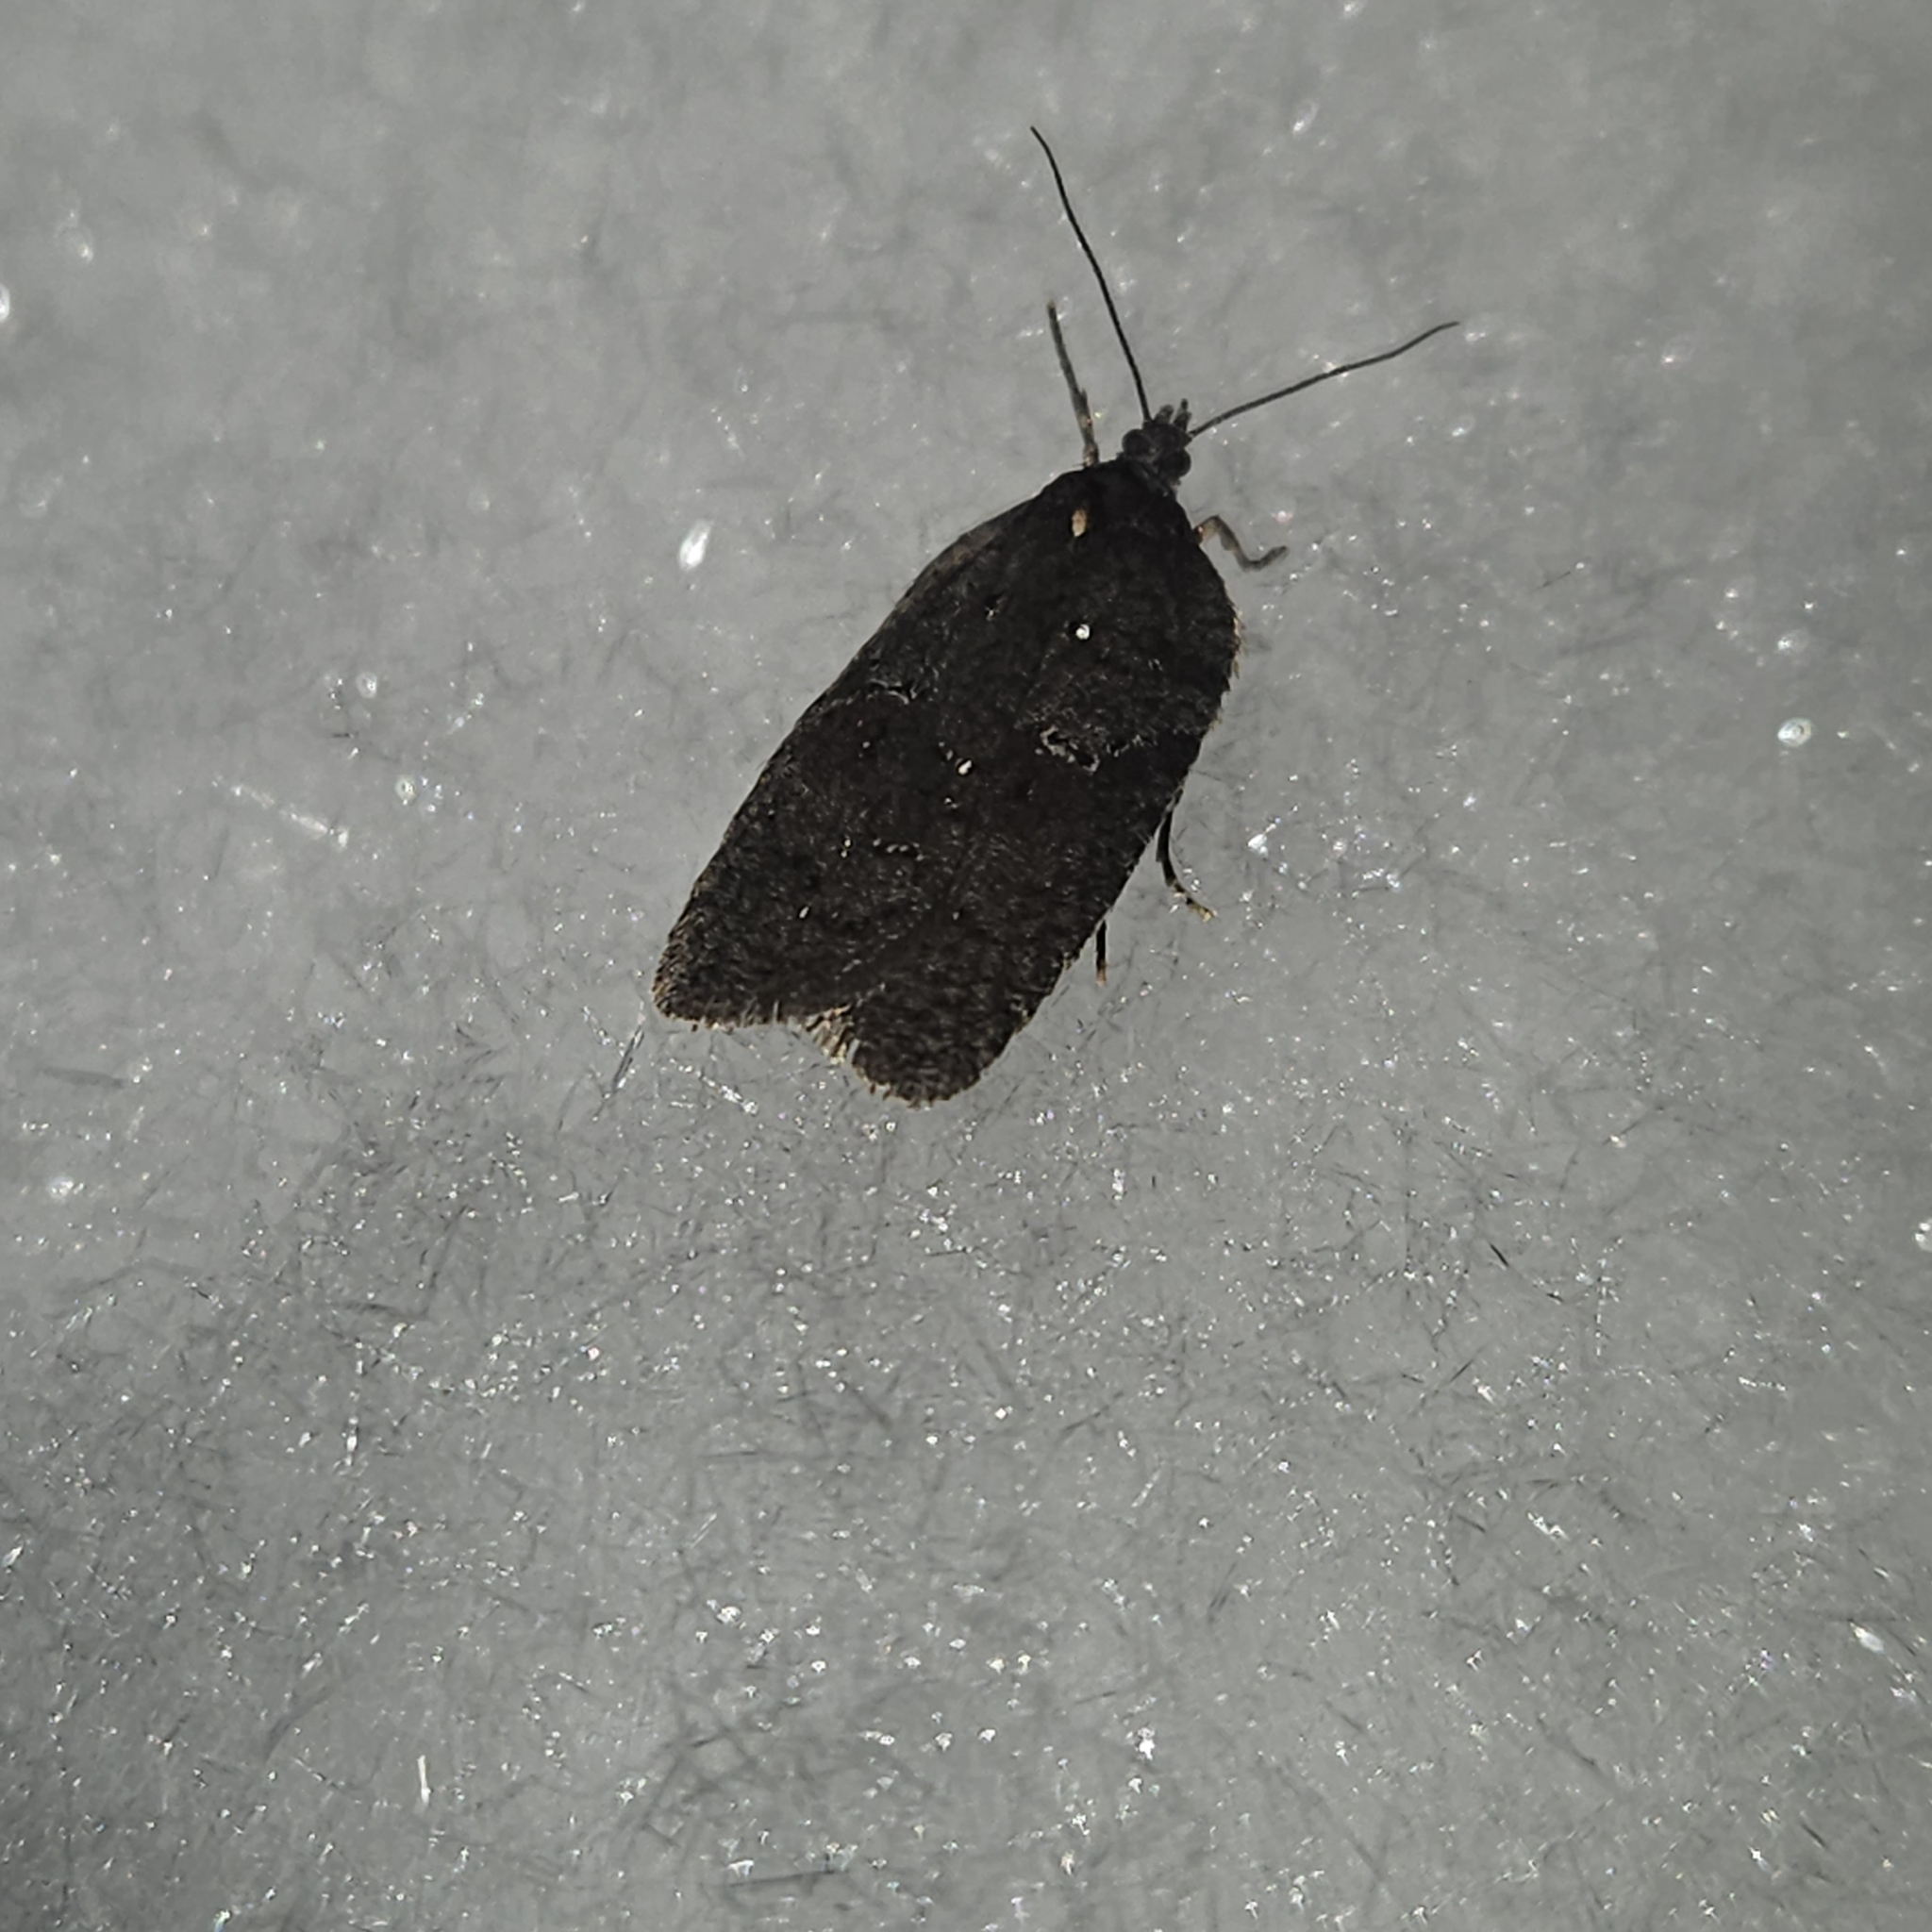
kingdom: Animalia
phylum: Arthropoda
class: Insecta
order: Lepidoptera
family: Tortricidae
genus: Acleris
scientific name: Acleris caliginosana
